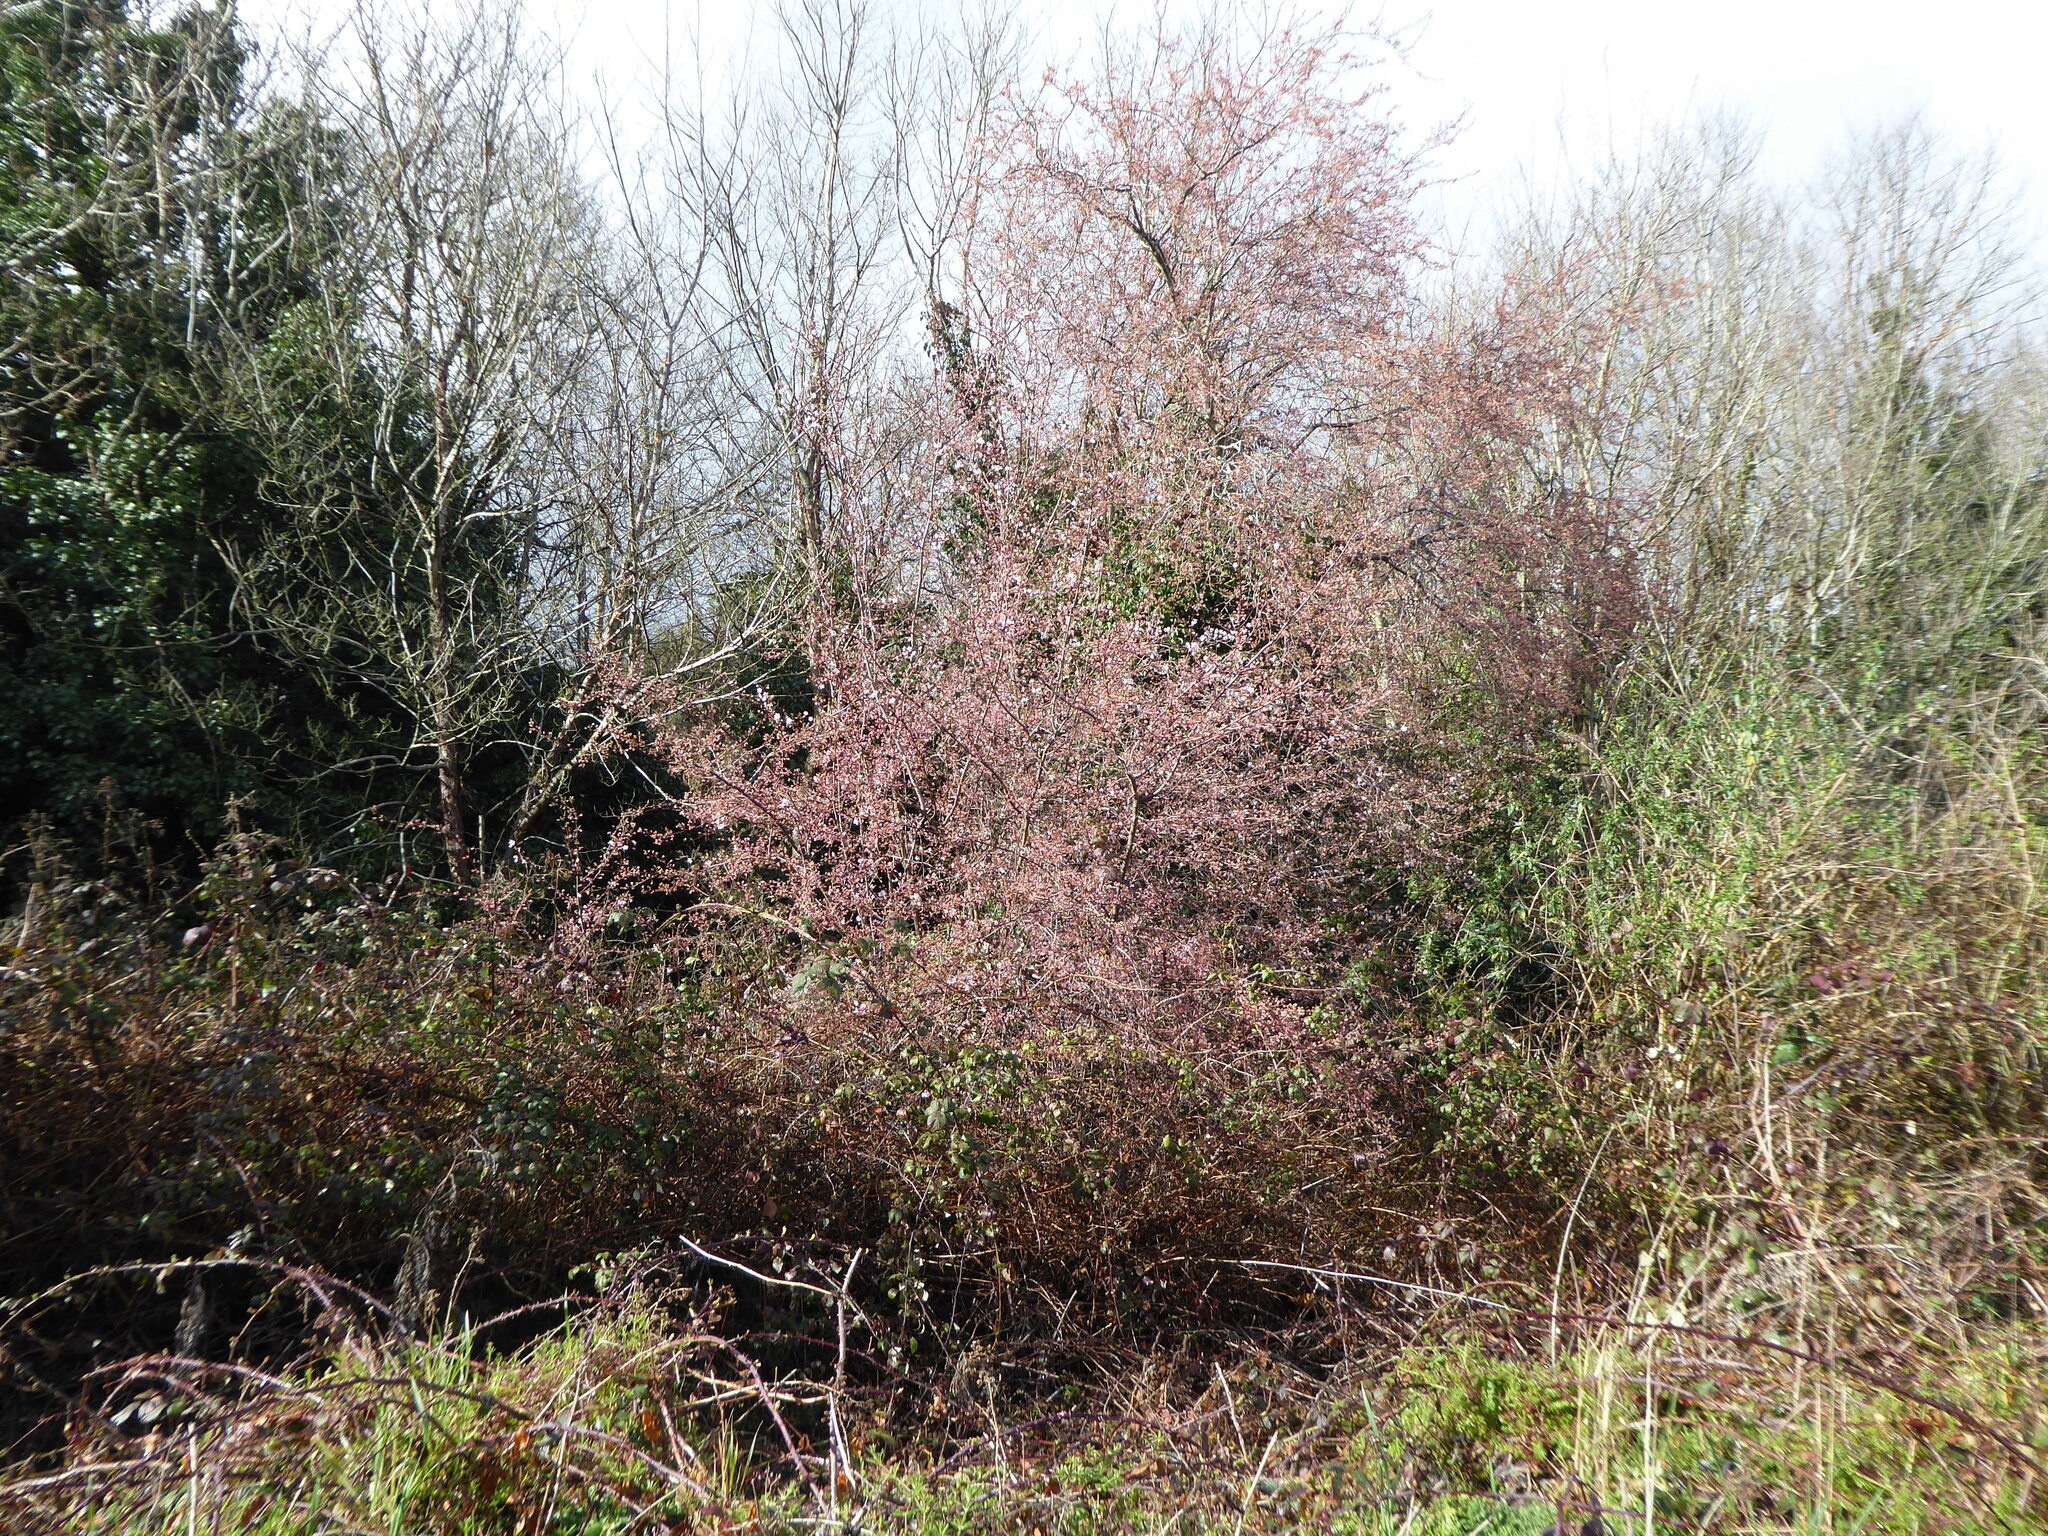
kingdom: Plantae
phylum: Tracheophyta
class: Magnoliopsida
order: Rosales
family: Rosaceae
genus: Prunus
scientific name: Prunus cerasifera
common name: Cherry plum
